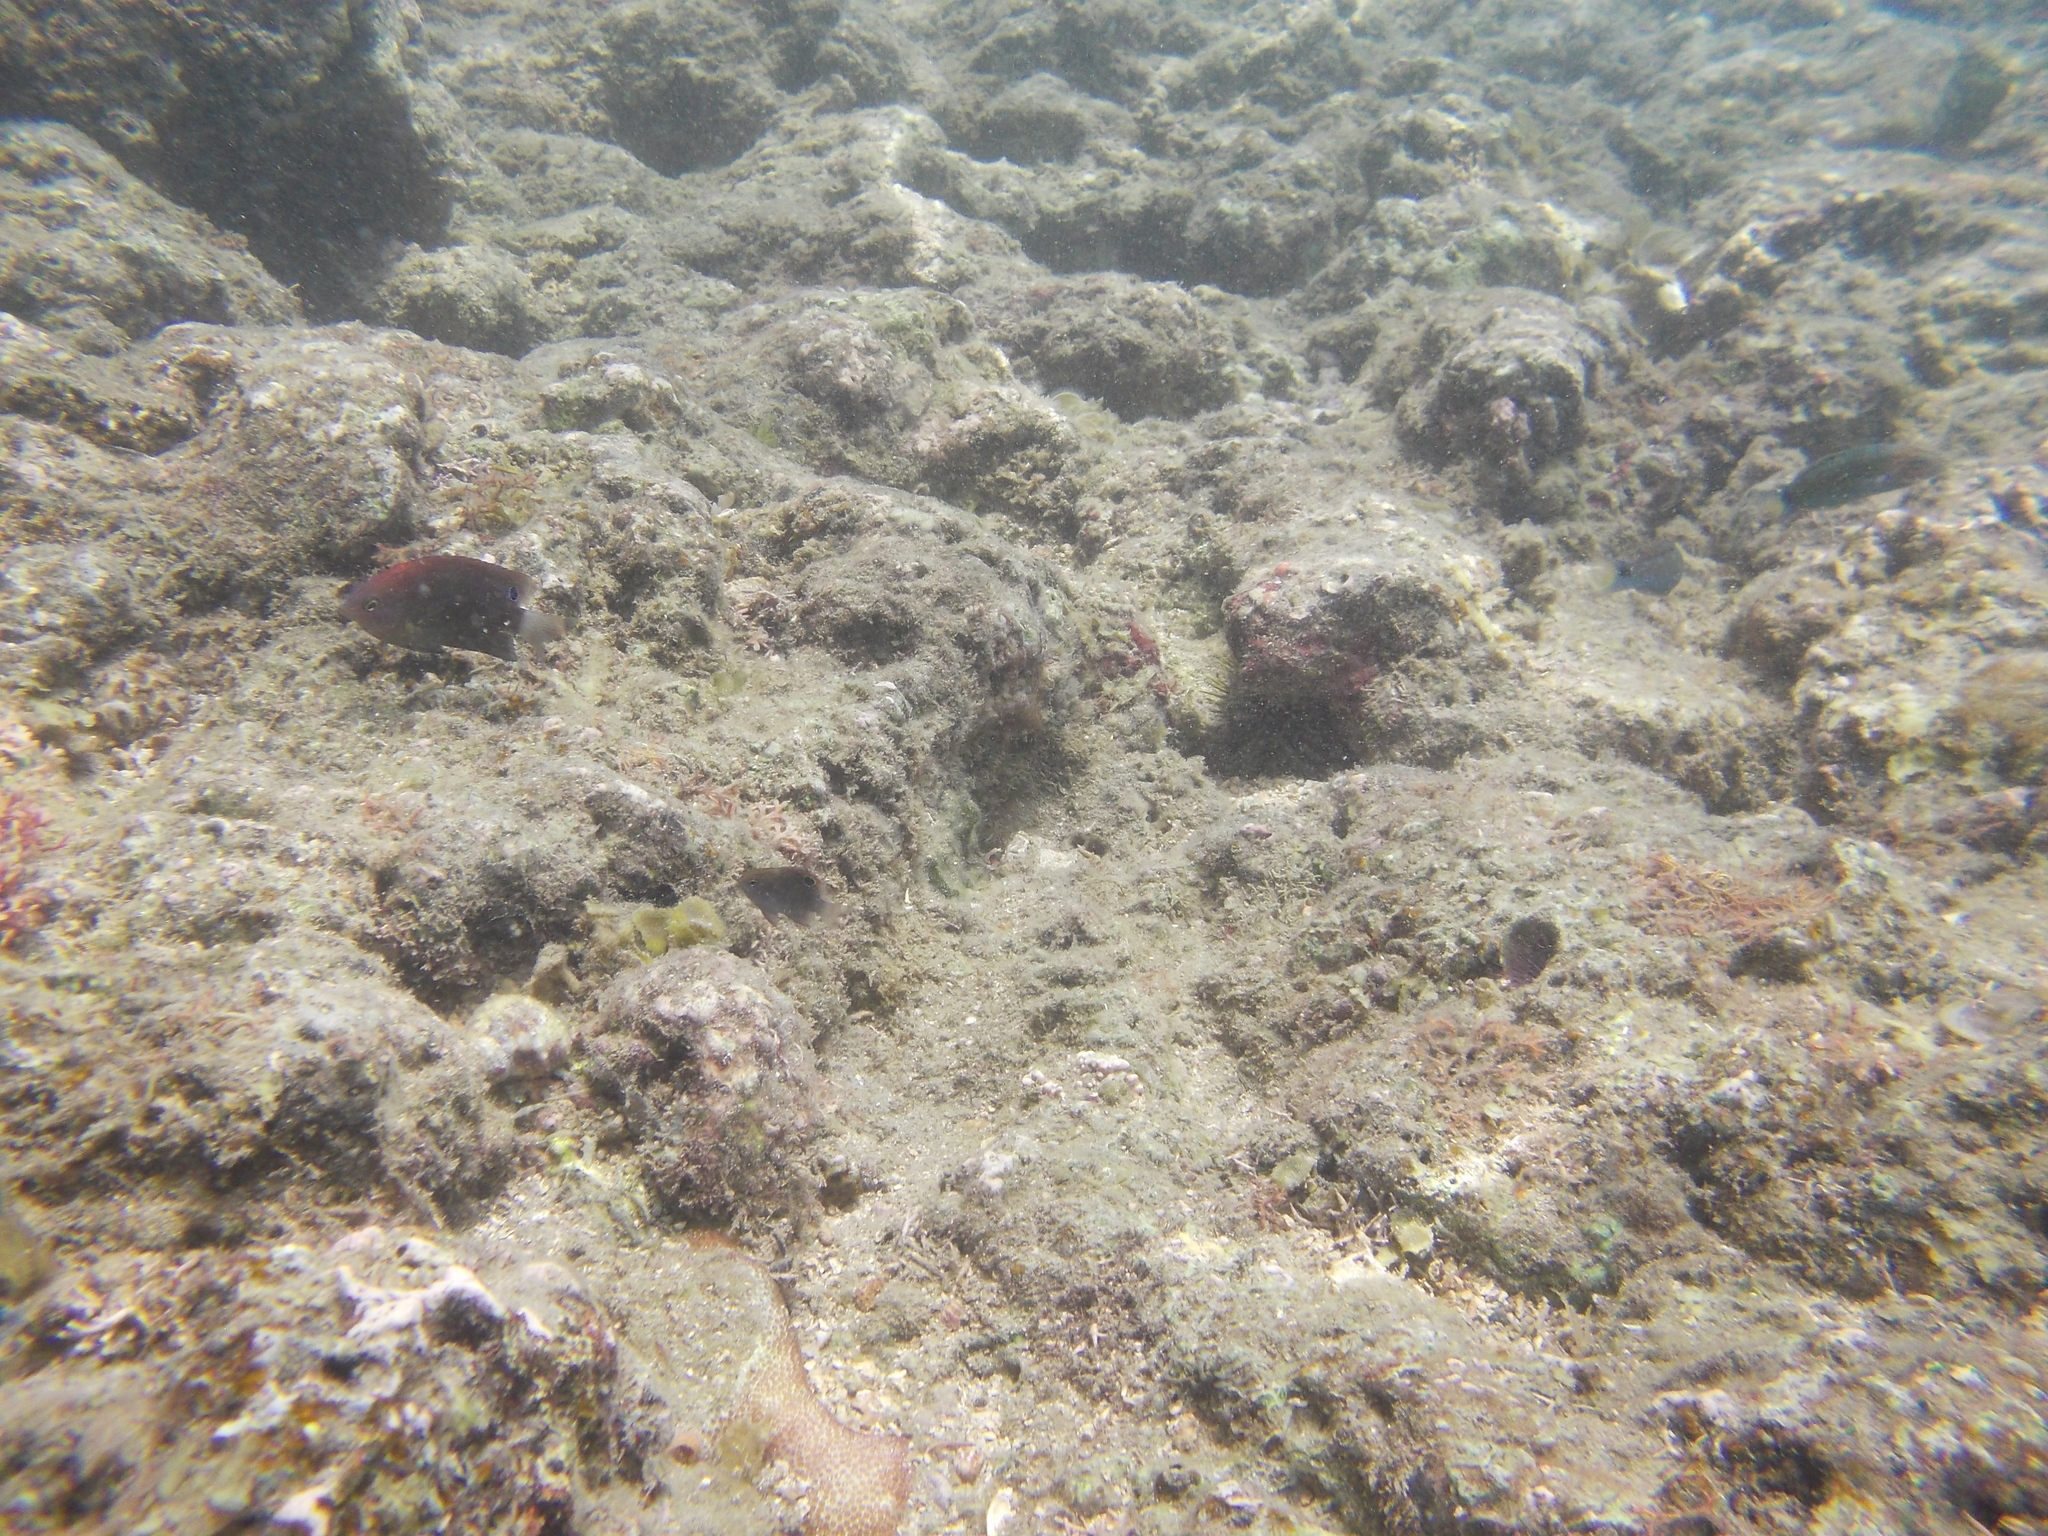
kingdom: Animalia
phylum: Chordata
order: Perciformes
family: Pomacentridae
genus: Pomacentrus
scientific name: Pomacentrus bankanensis
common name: Speckled damsel
